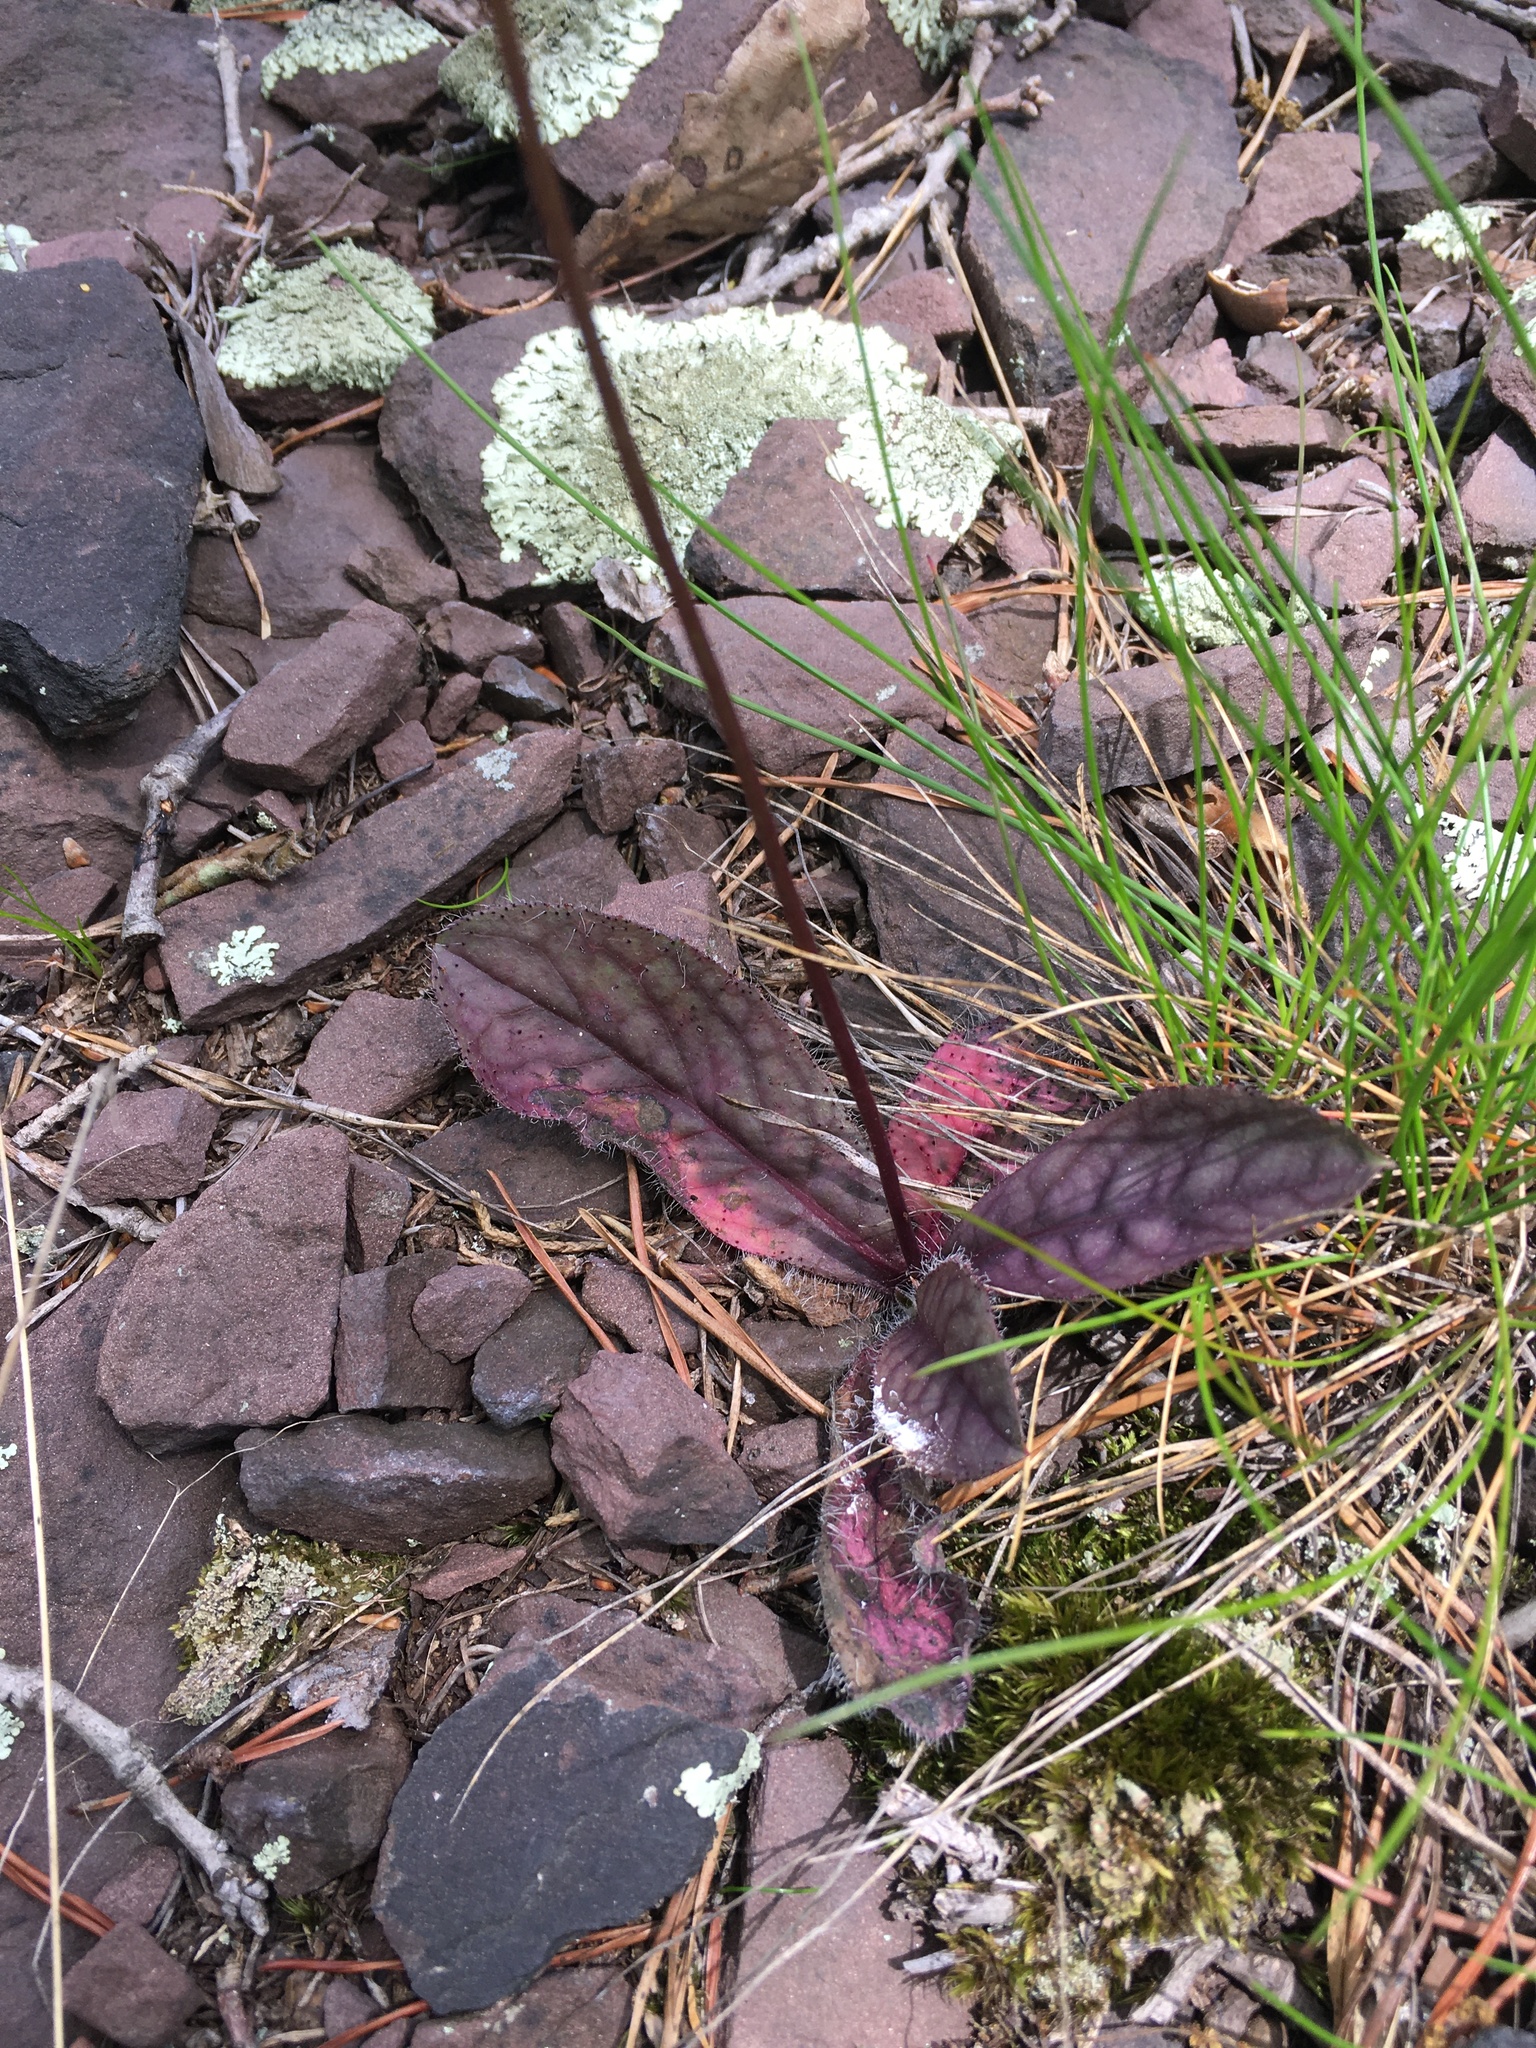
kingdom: Plantae
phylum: Tracheophyta
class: Magnoliopsida
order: Asterales
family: Asteraceae
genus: Hieracium
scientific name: Hieracium venosum
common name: Rattlesnake hawkweed
